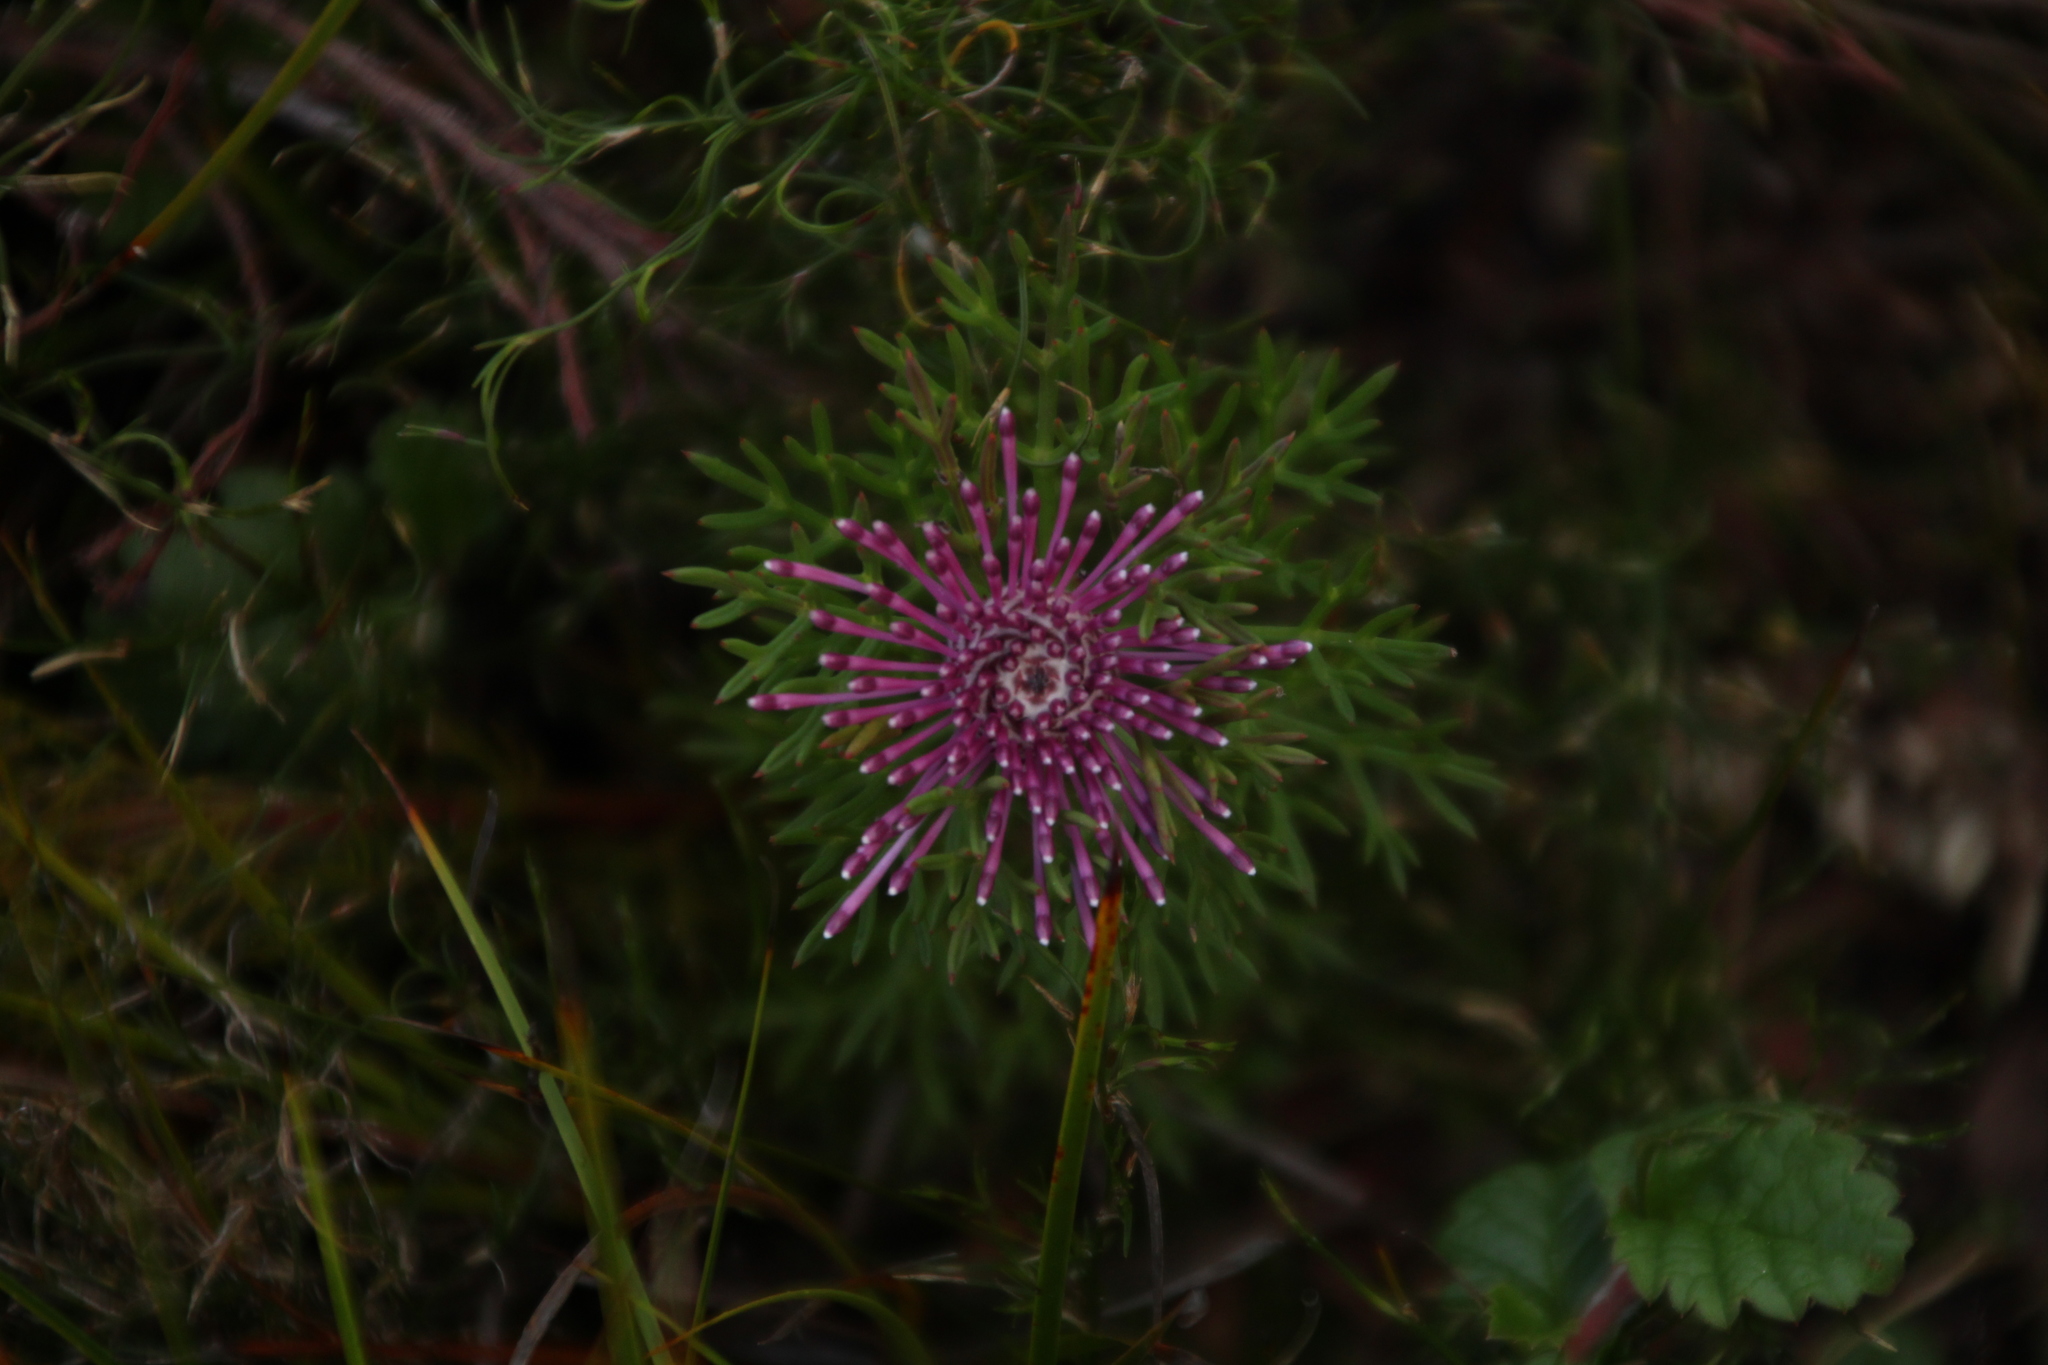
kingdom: Plantae
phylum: Tracheophyta
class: Magnoliopsida
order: Proteales
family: Proteaceae
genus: Isopogon
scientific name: Isopogon formosus
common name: Rose-coneflower
